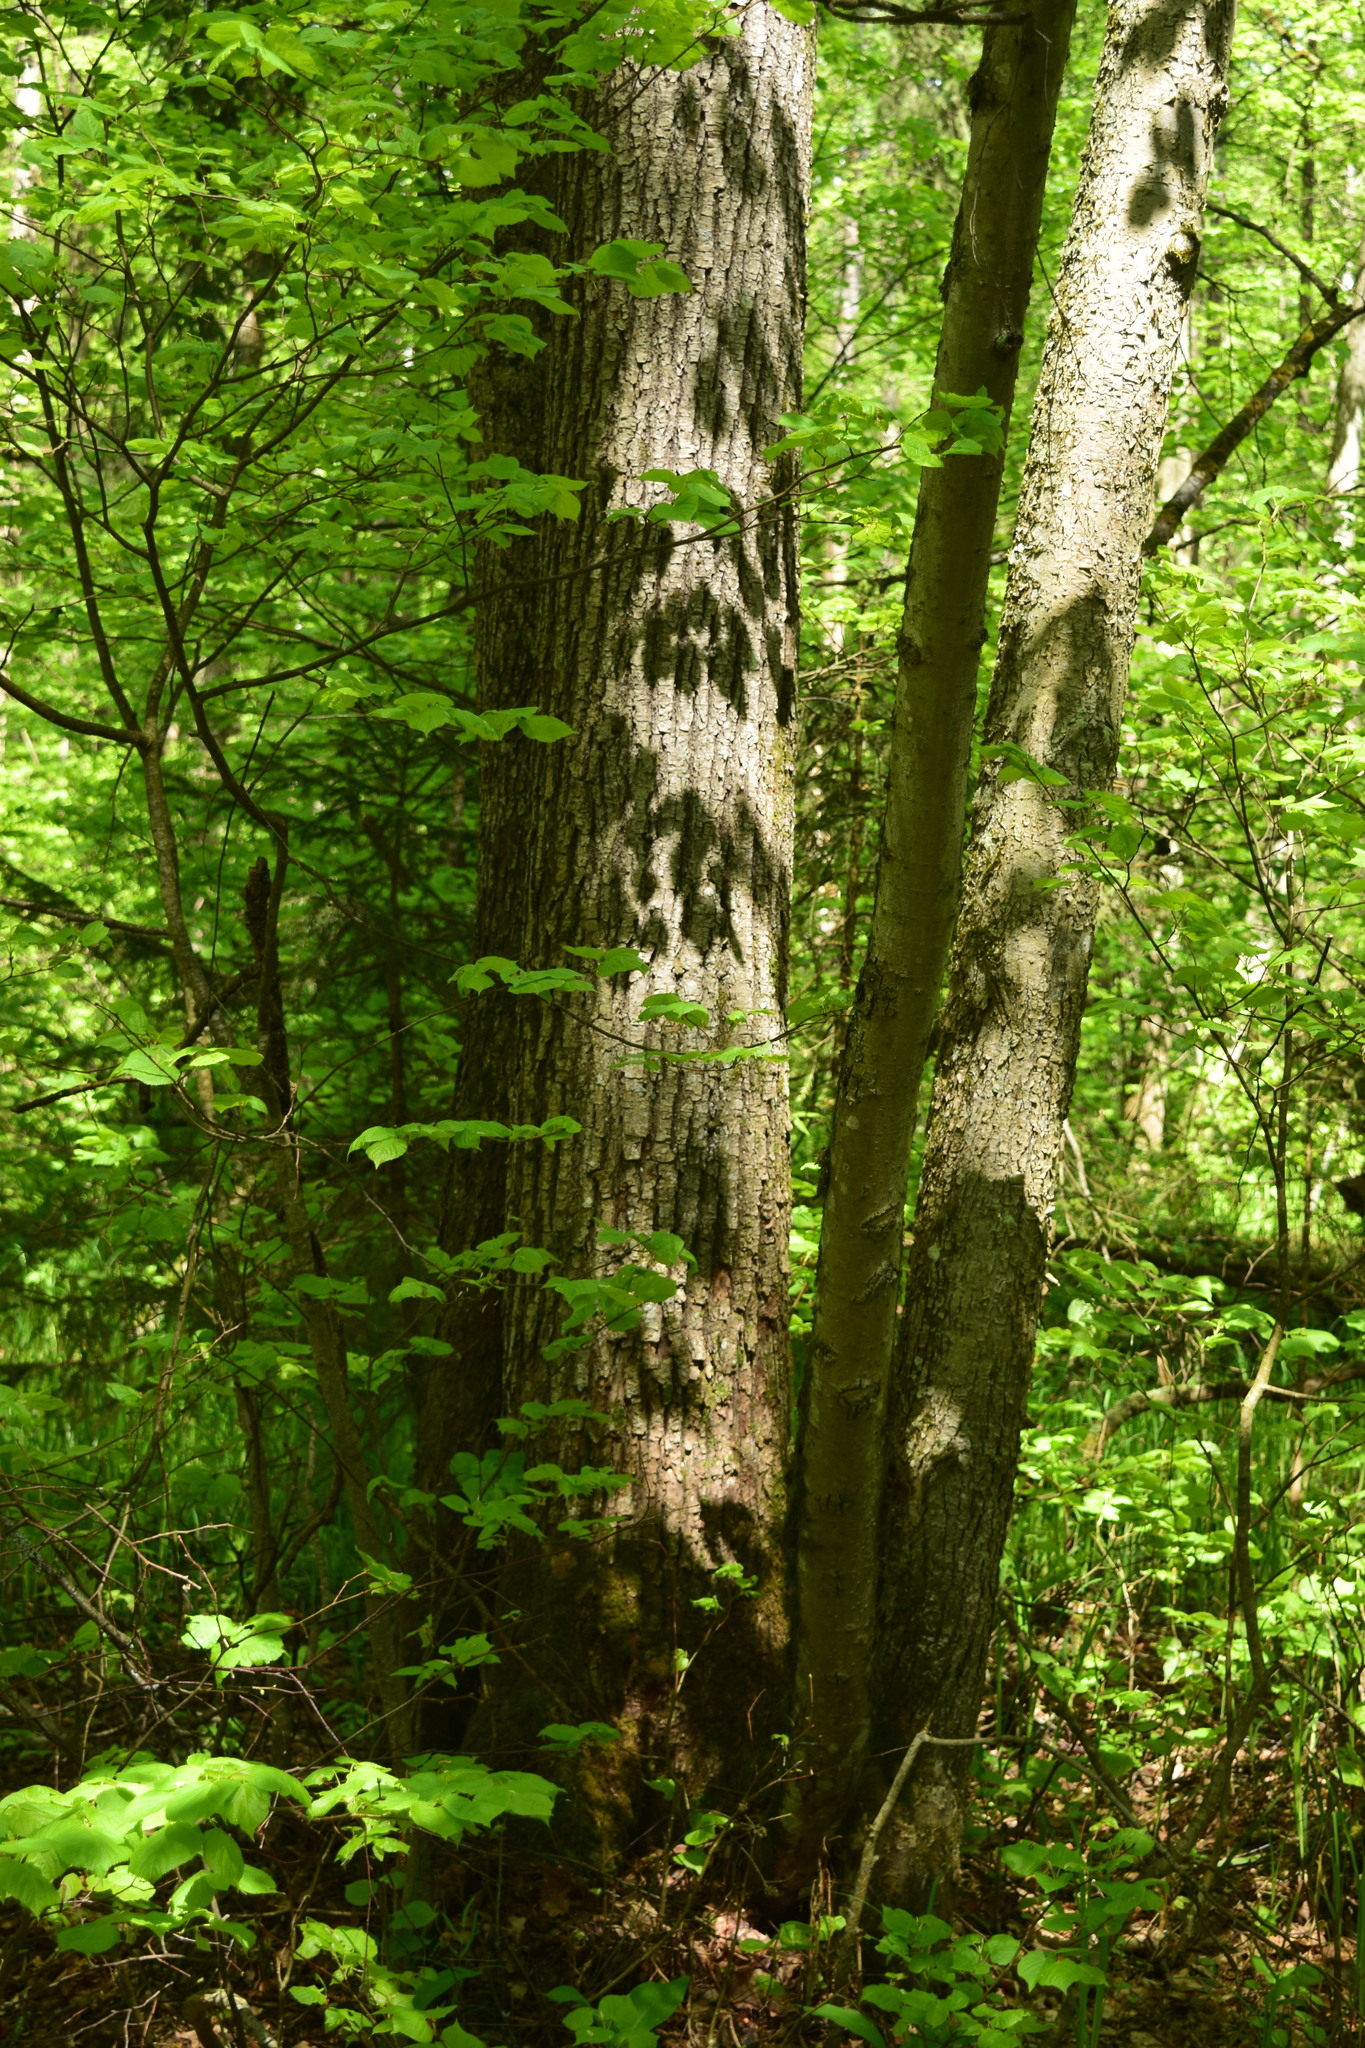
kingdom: Plantae
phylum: Tracheophyta
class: Magnoliopsida
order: Malvales
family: Malvaceae
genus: Tilia
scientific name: Tilia cordata
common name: Small-leaved lime
